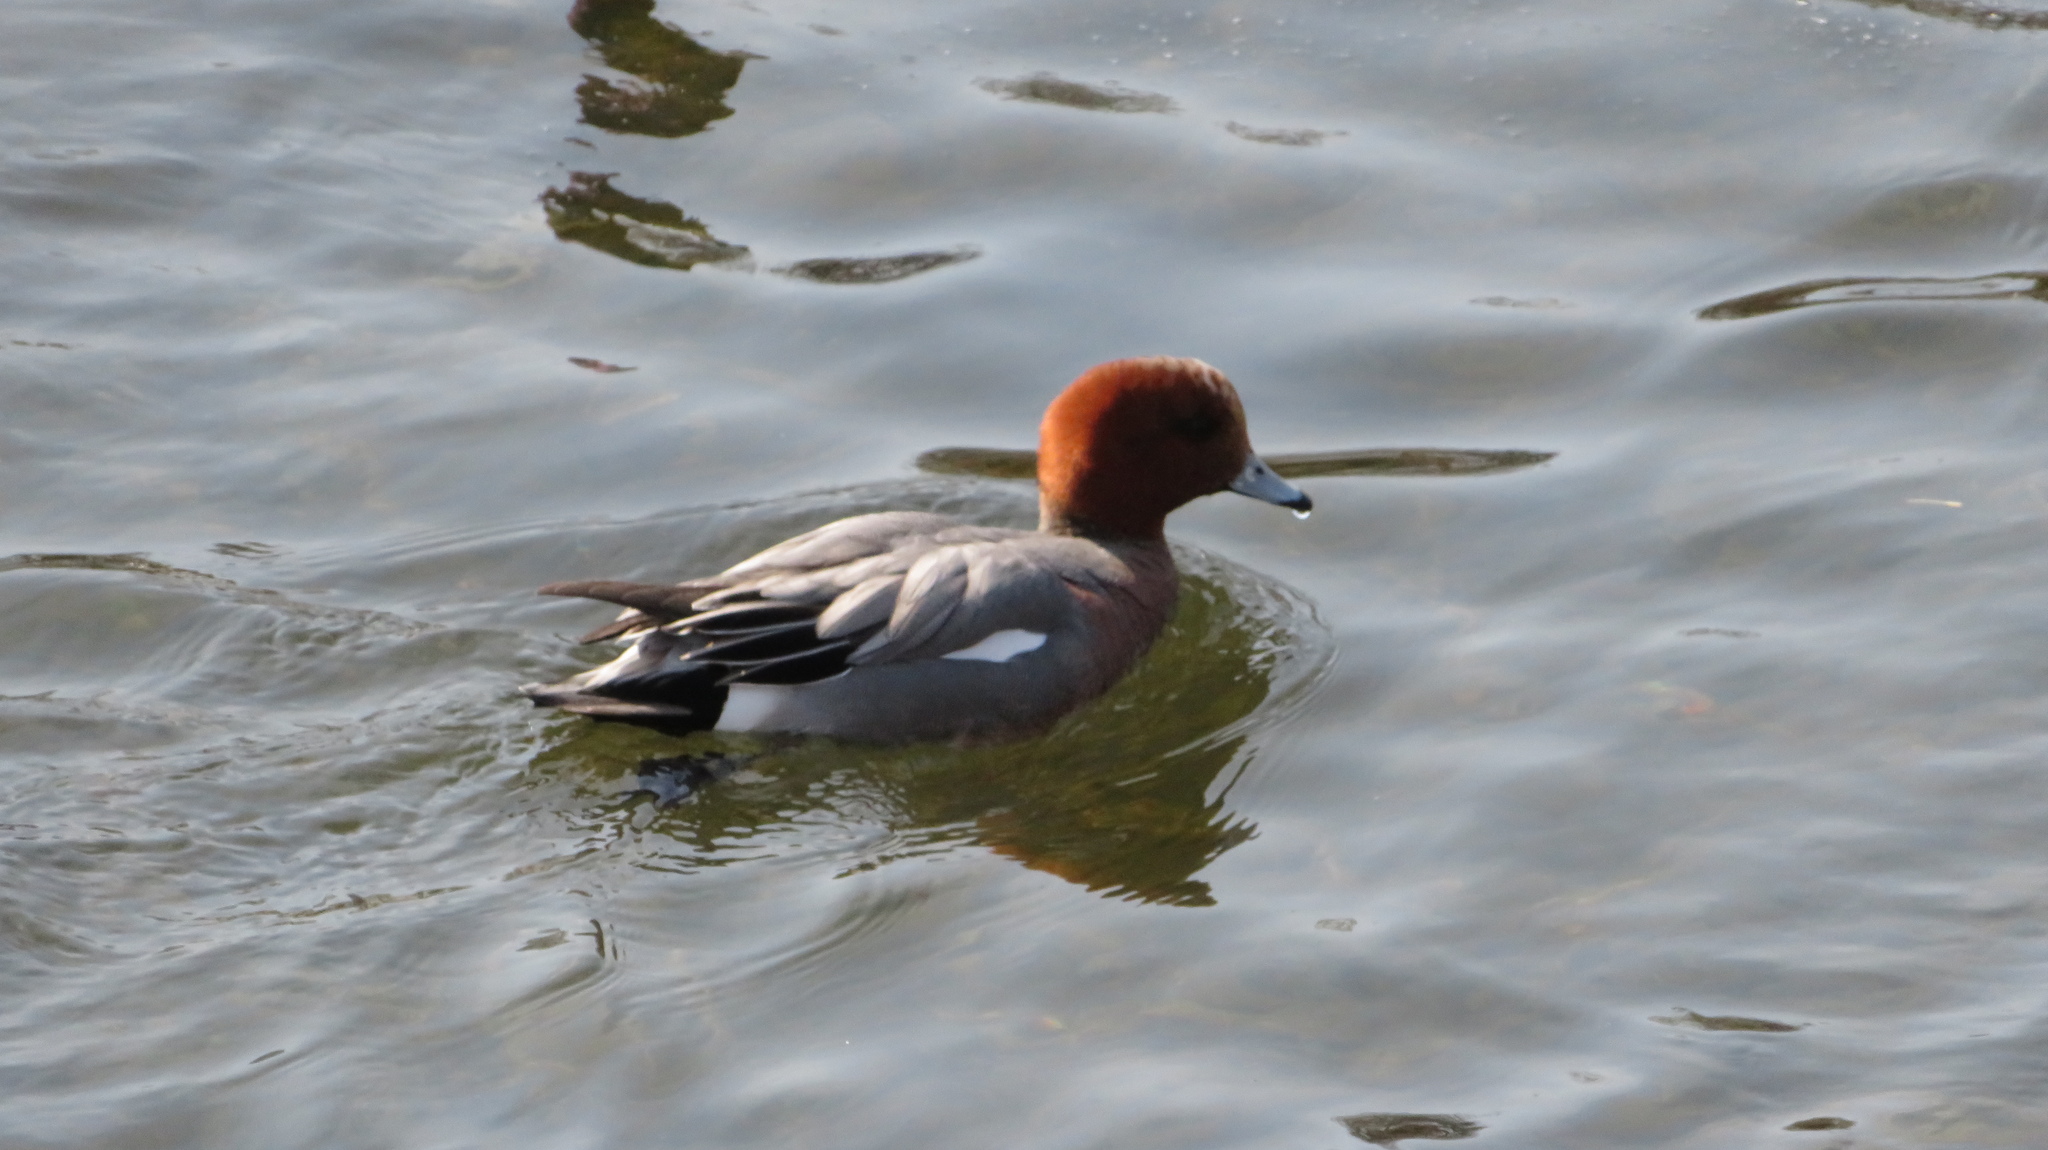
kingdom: Animalia
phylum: Chordata
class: Aves
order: Anseriformes
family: Anatidae
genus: Mareca
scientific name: Mareca penelope
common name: Eurasian wigeon
